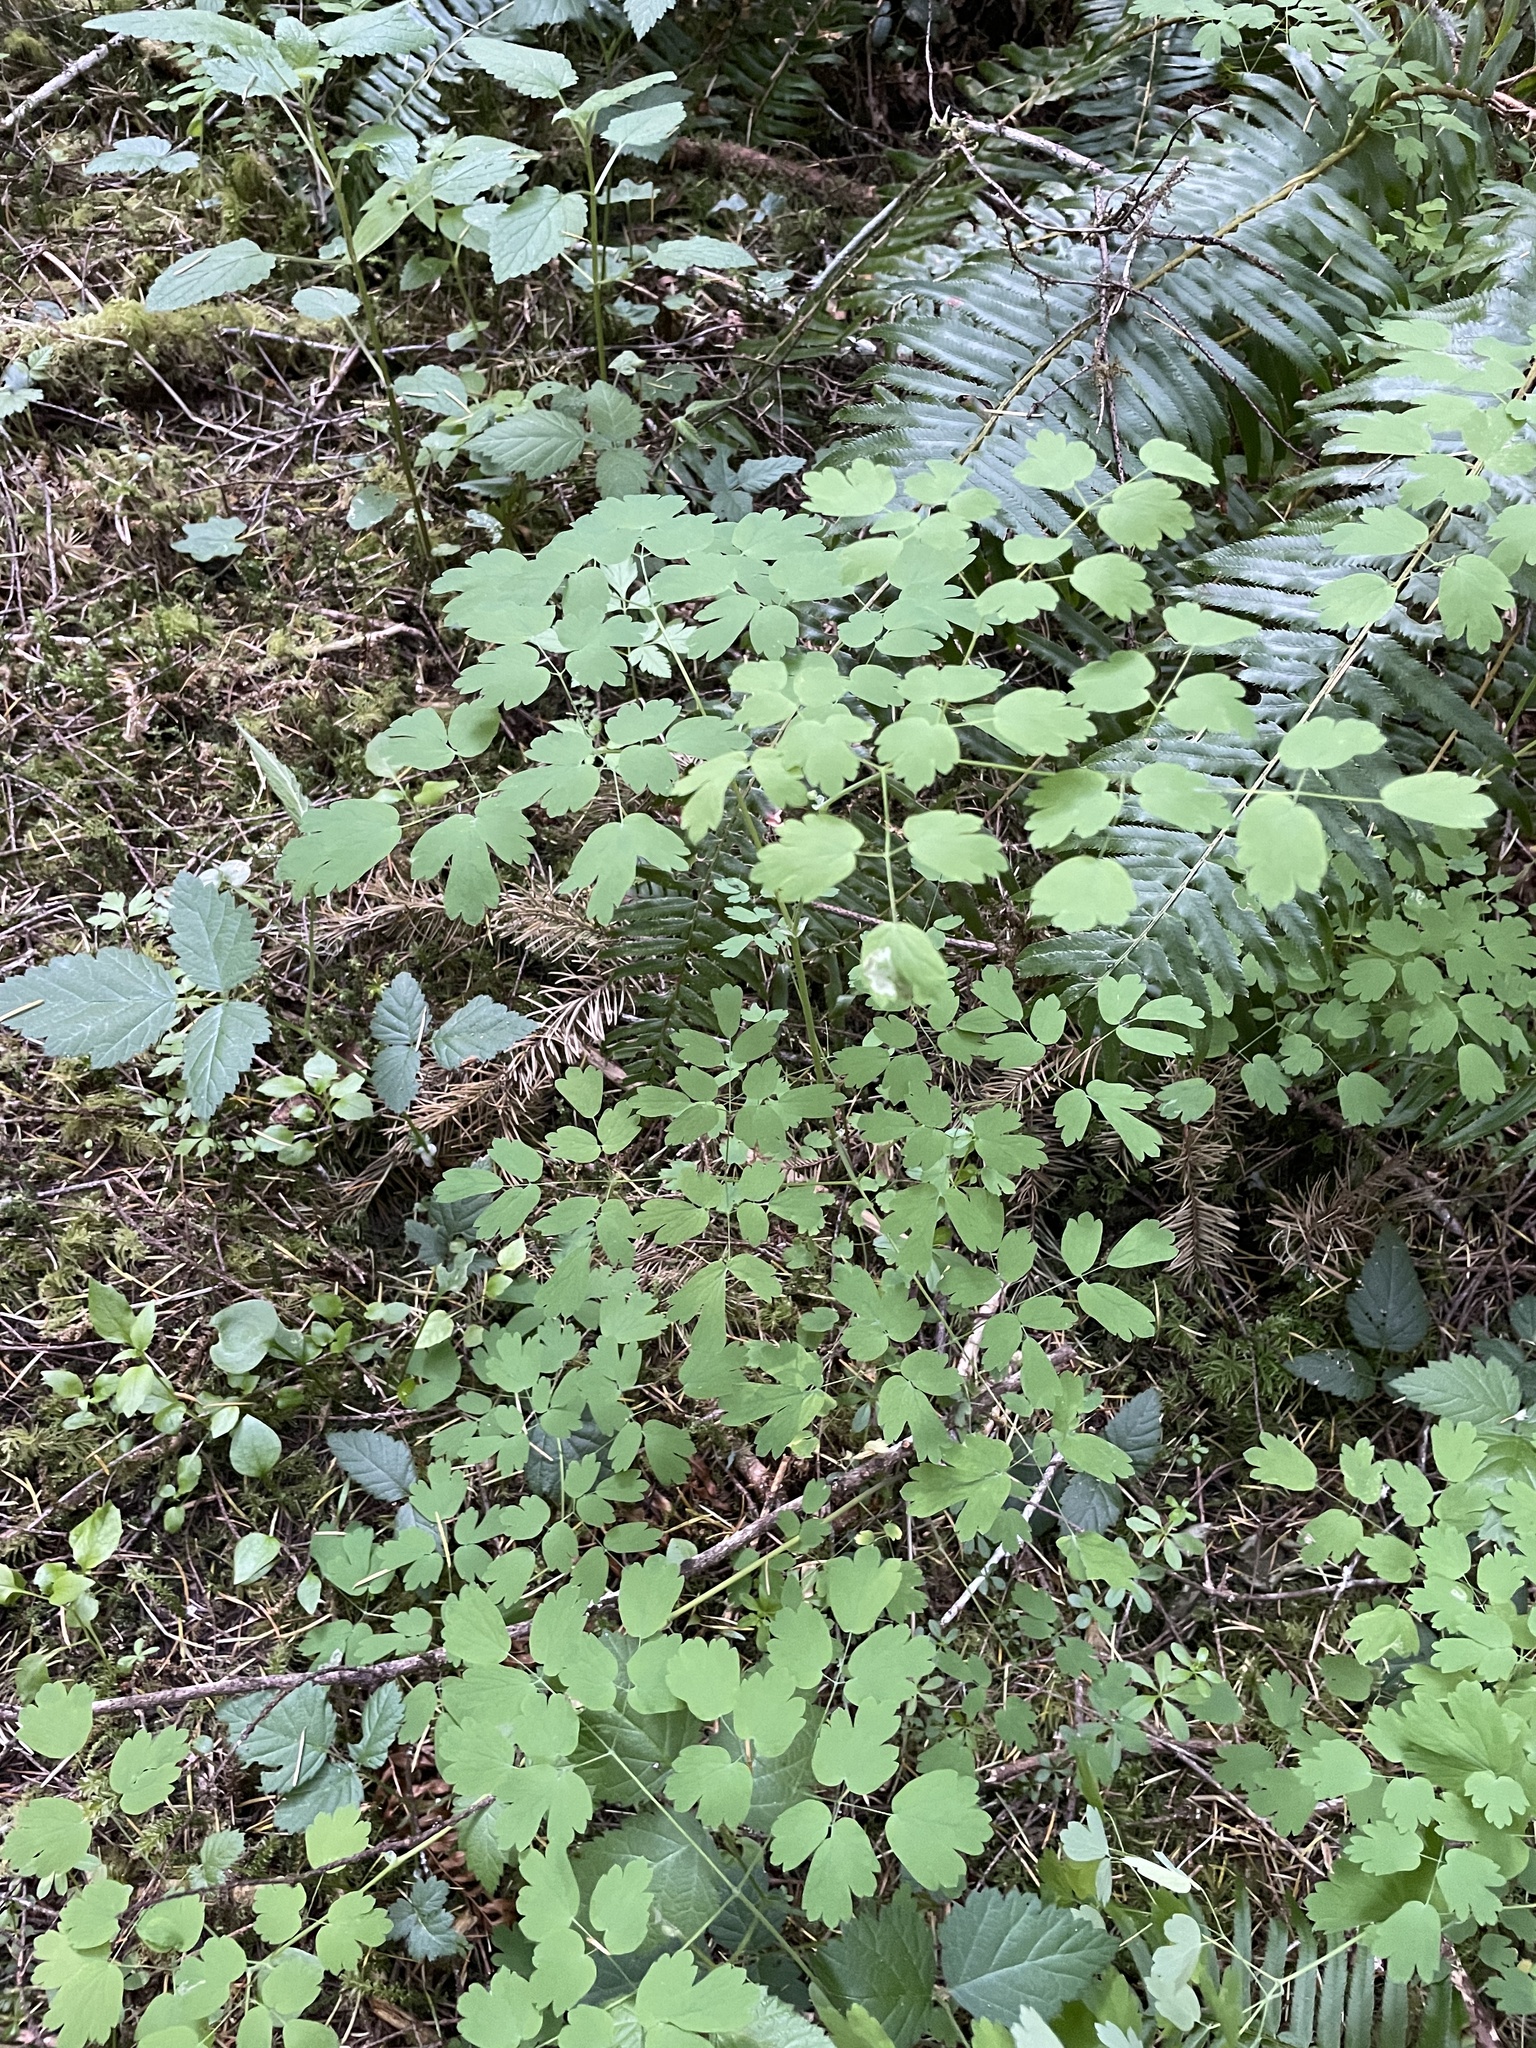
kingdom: Plantae
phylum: Tracheophyta
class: Magnoliopsida
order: Ranunculales
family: Ranunculaceae
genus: Thalictrum
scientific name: Thalictrum occidentale
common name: Western meadow-rue
